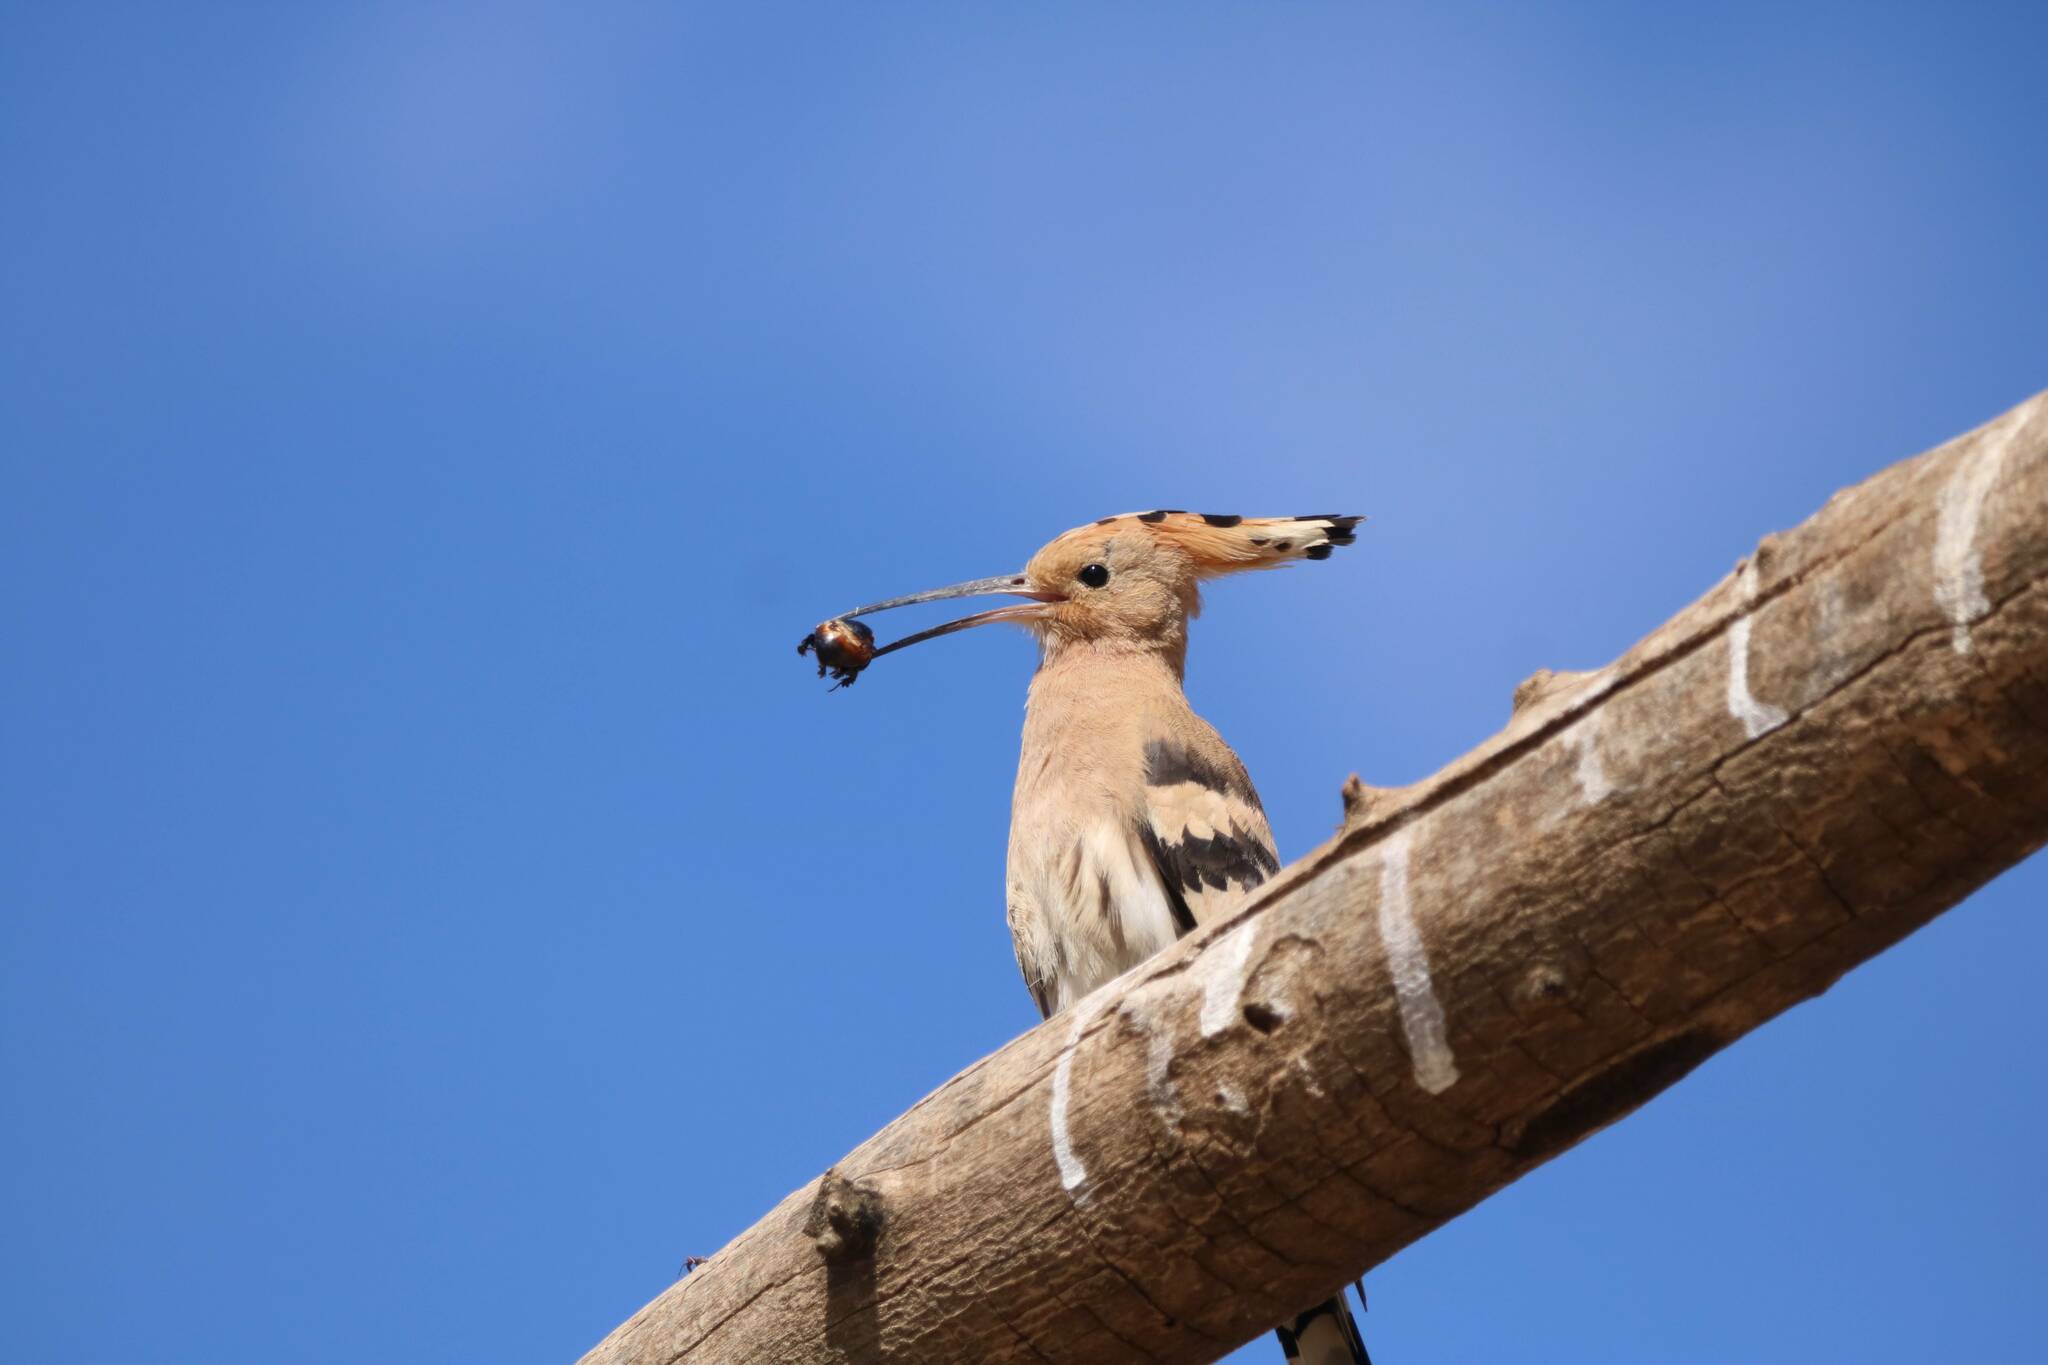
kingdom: Animalia
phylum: Chordata
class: Aves
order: Bucerotiformes
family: Upupidae
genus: Upupa
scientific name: Upupa epops
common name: Eurasian hoopoe
